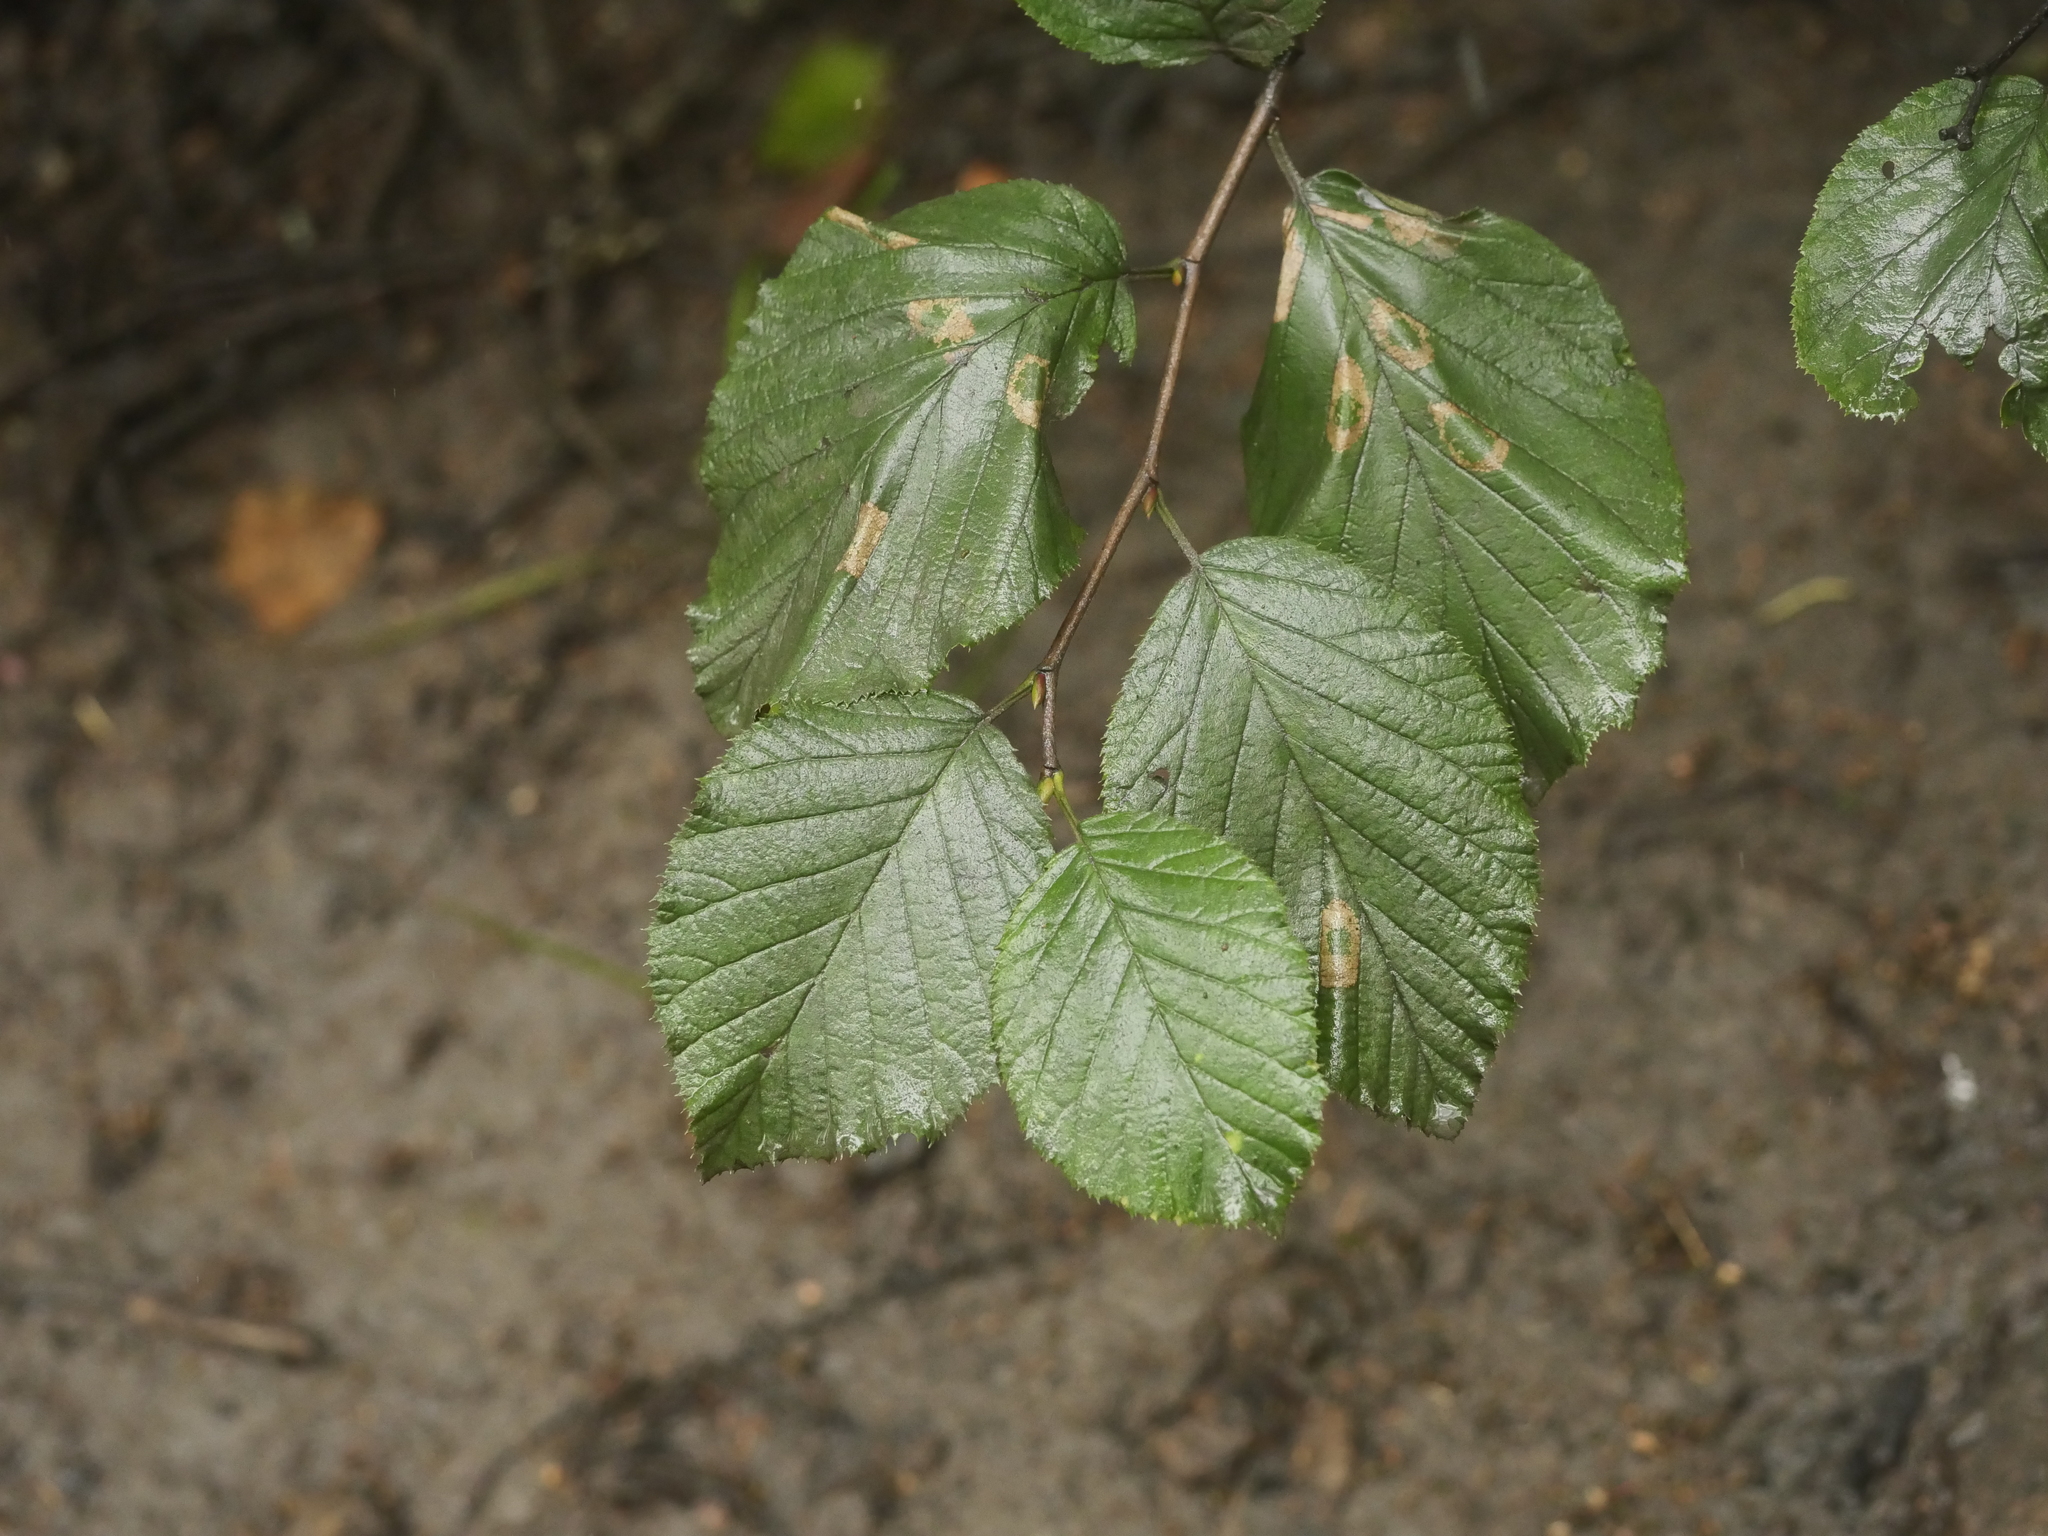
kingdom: Plantae
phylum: Tracheophyta
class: Magnoliopsida
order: Fagales
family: Betulaceae
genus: Alnus
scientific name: Alnus alnobetula
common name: Green alder
